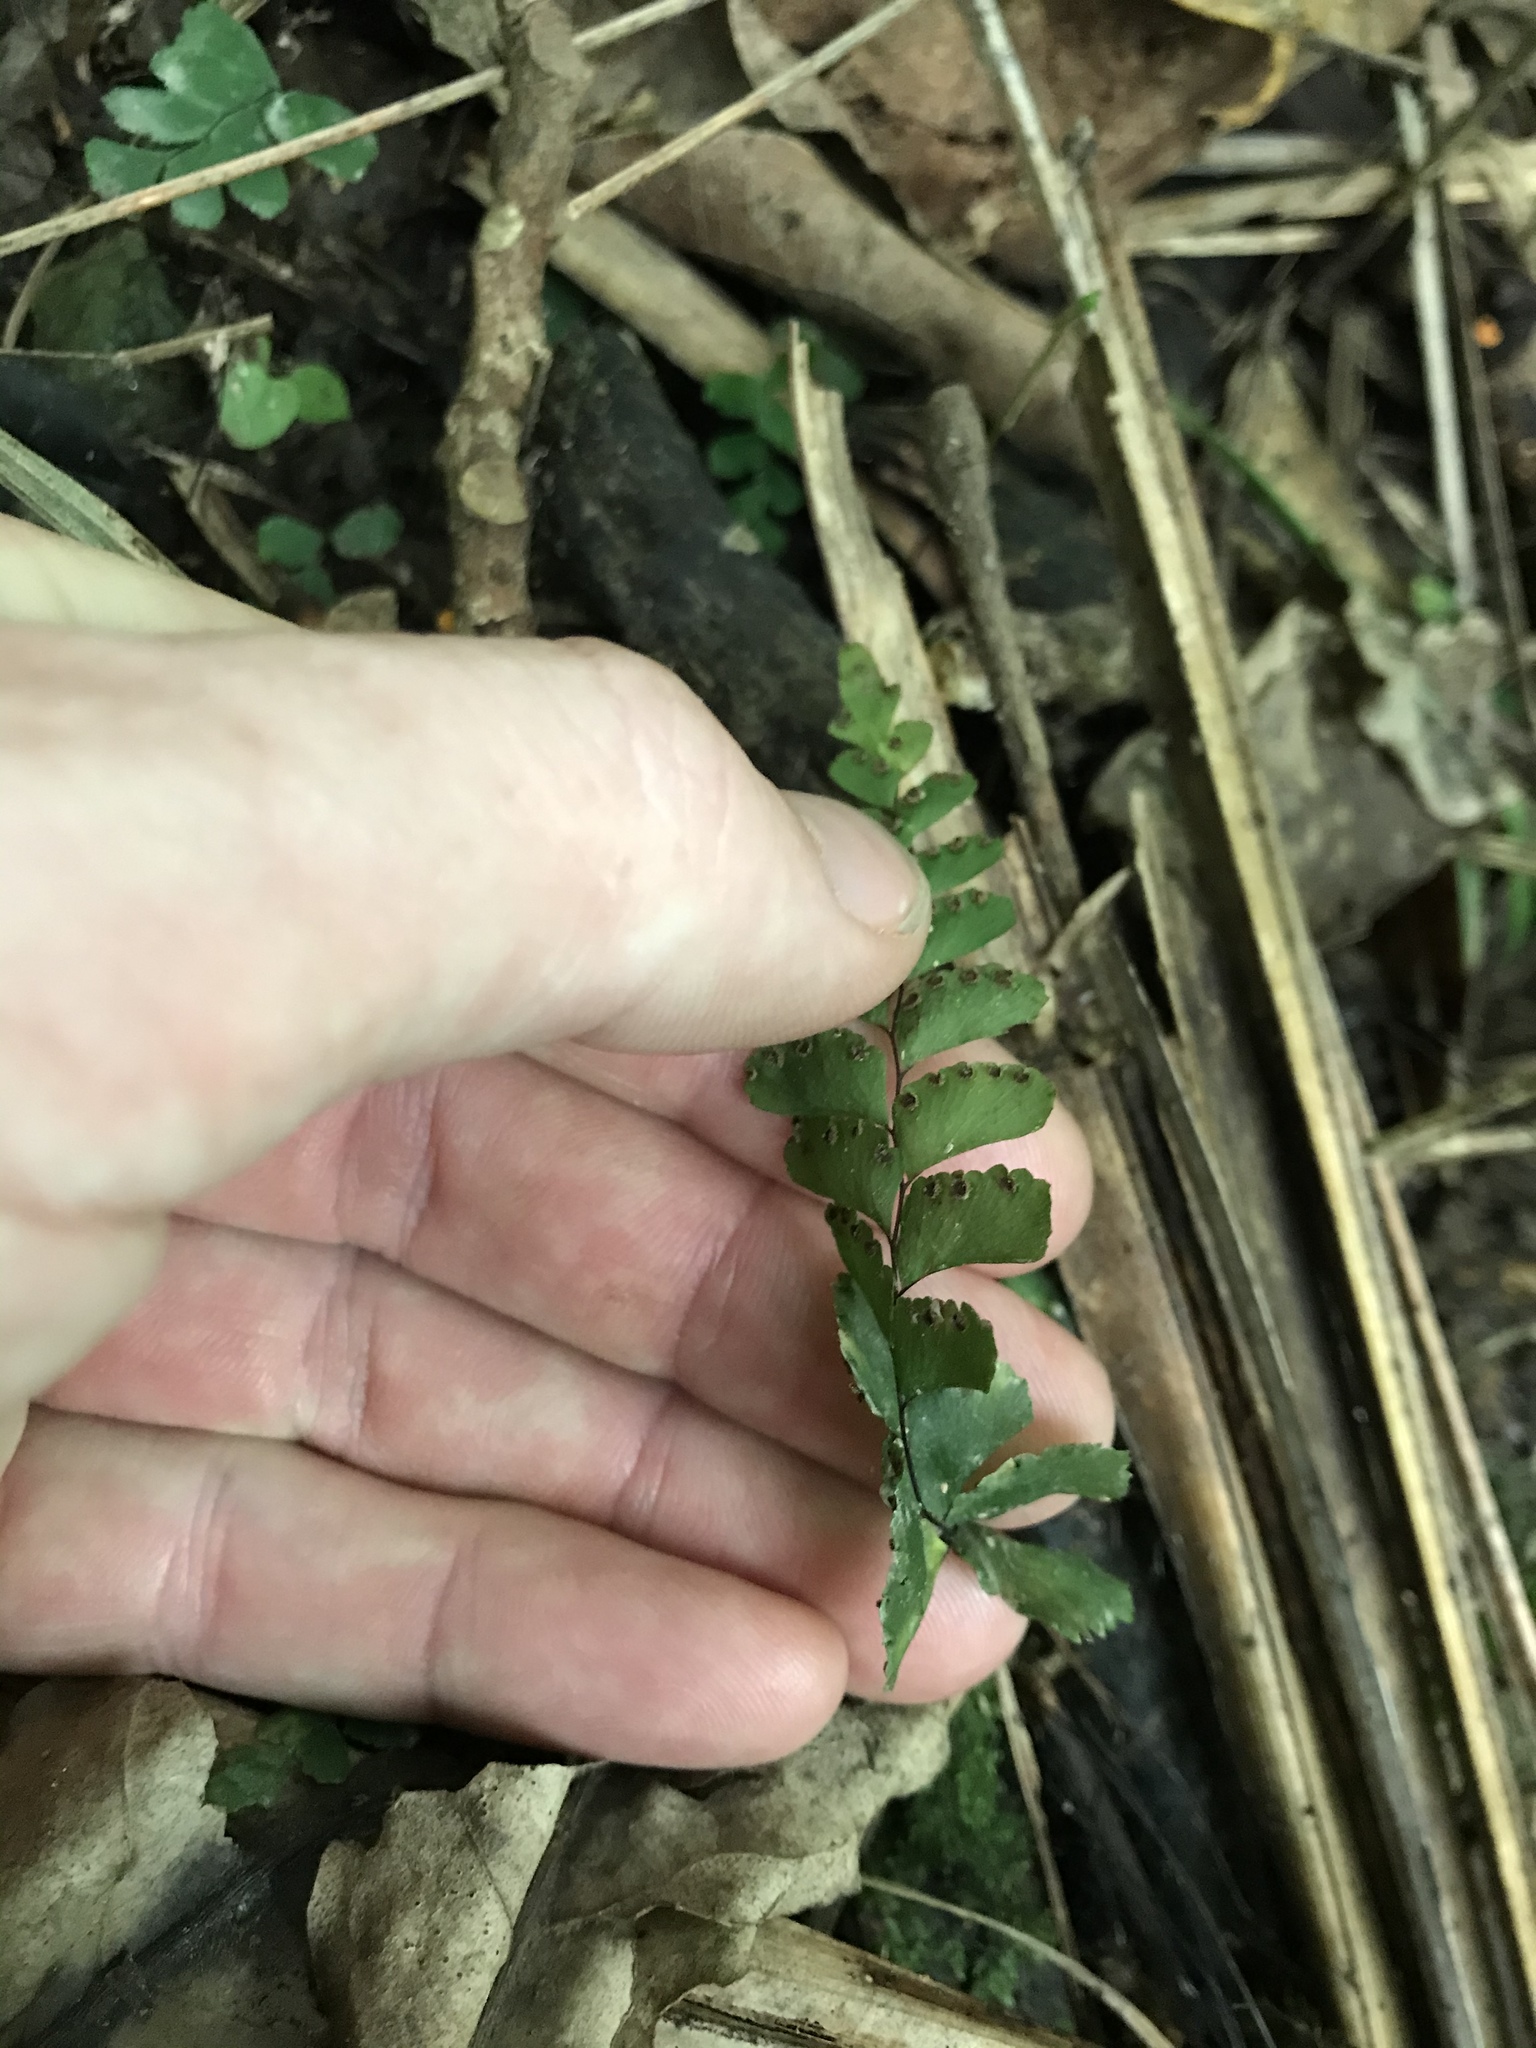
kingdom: Plantae
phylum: Tracheophyta
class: Polypodiopsida
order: Polypodiales
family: Pteridaceae
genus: Adiantum
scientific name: Adiantum diaphanum
